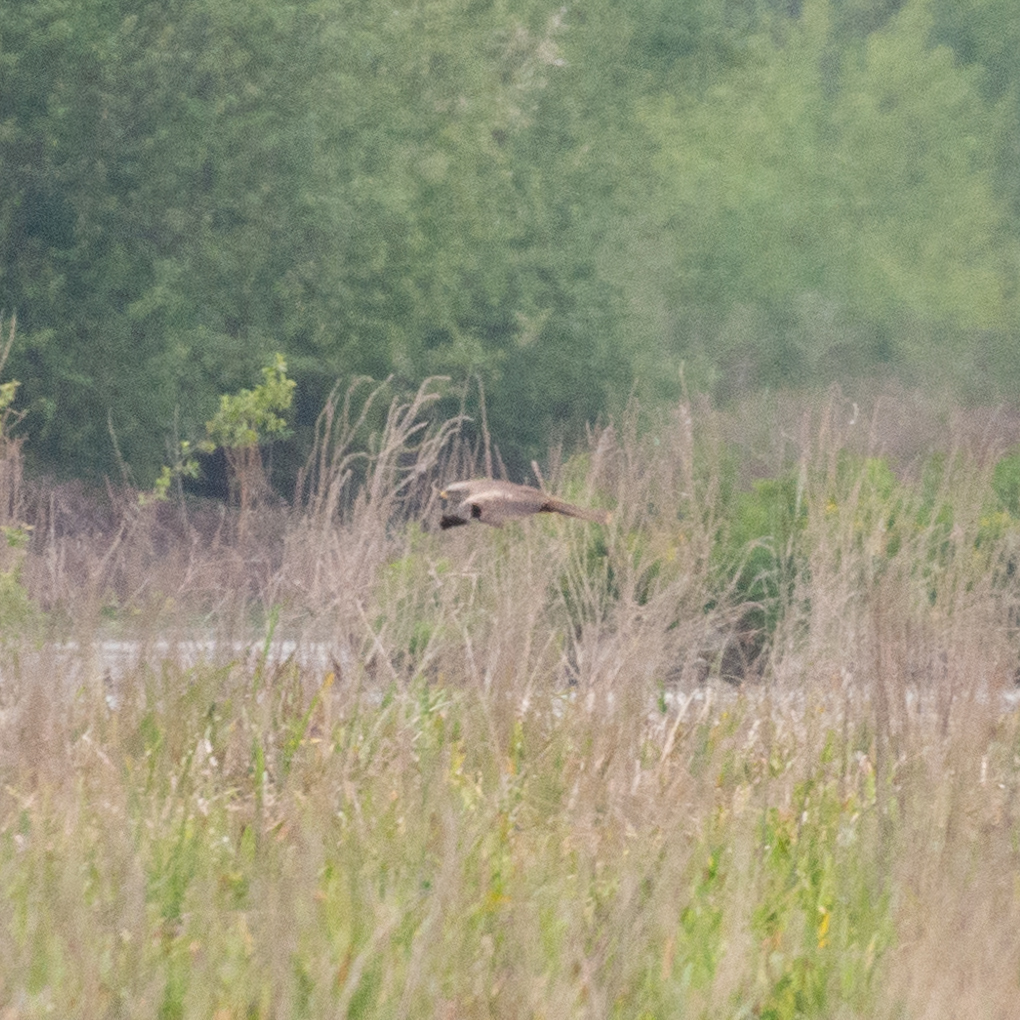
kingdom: Animalia
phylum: Chordata
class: Aves
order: Accipitriformes
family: Accipitridae
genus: Milvus
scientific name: Milvus migrans
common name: Black kite
